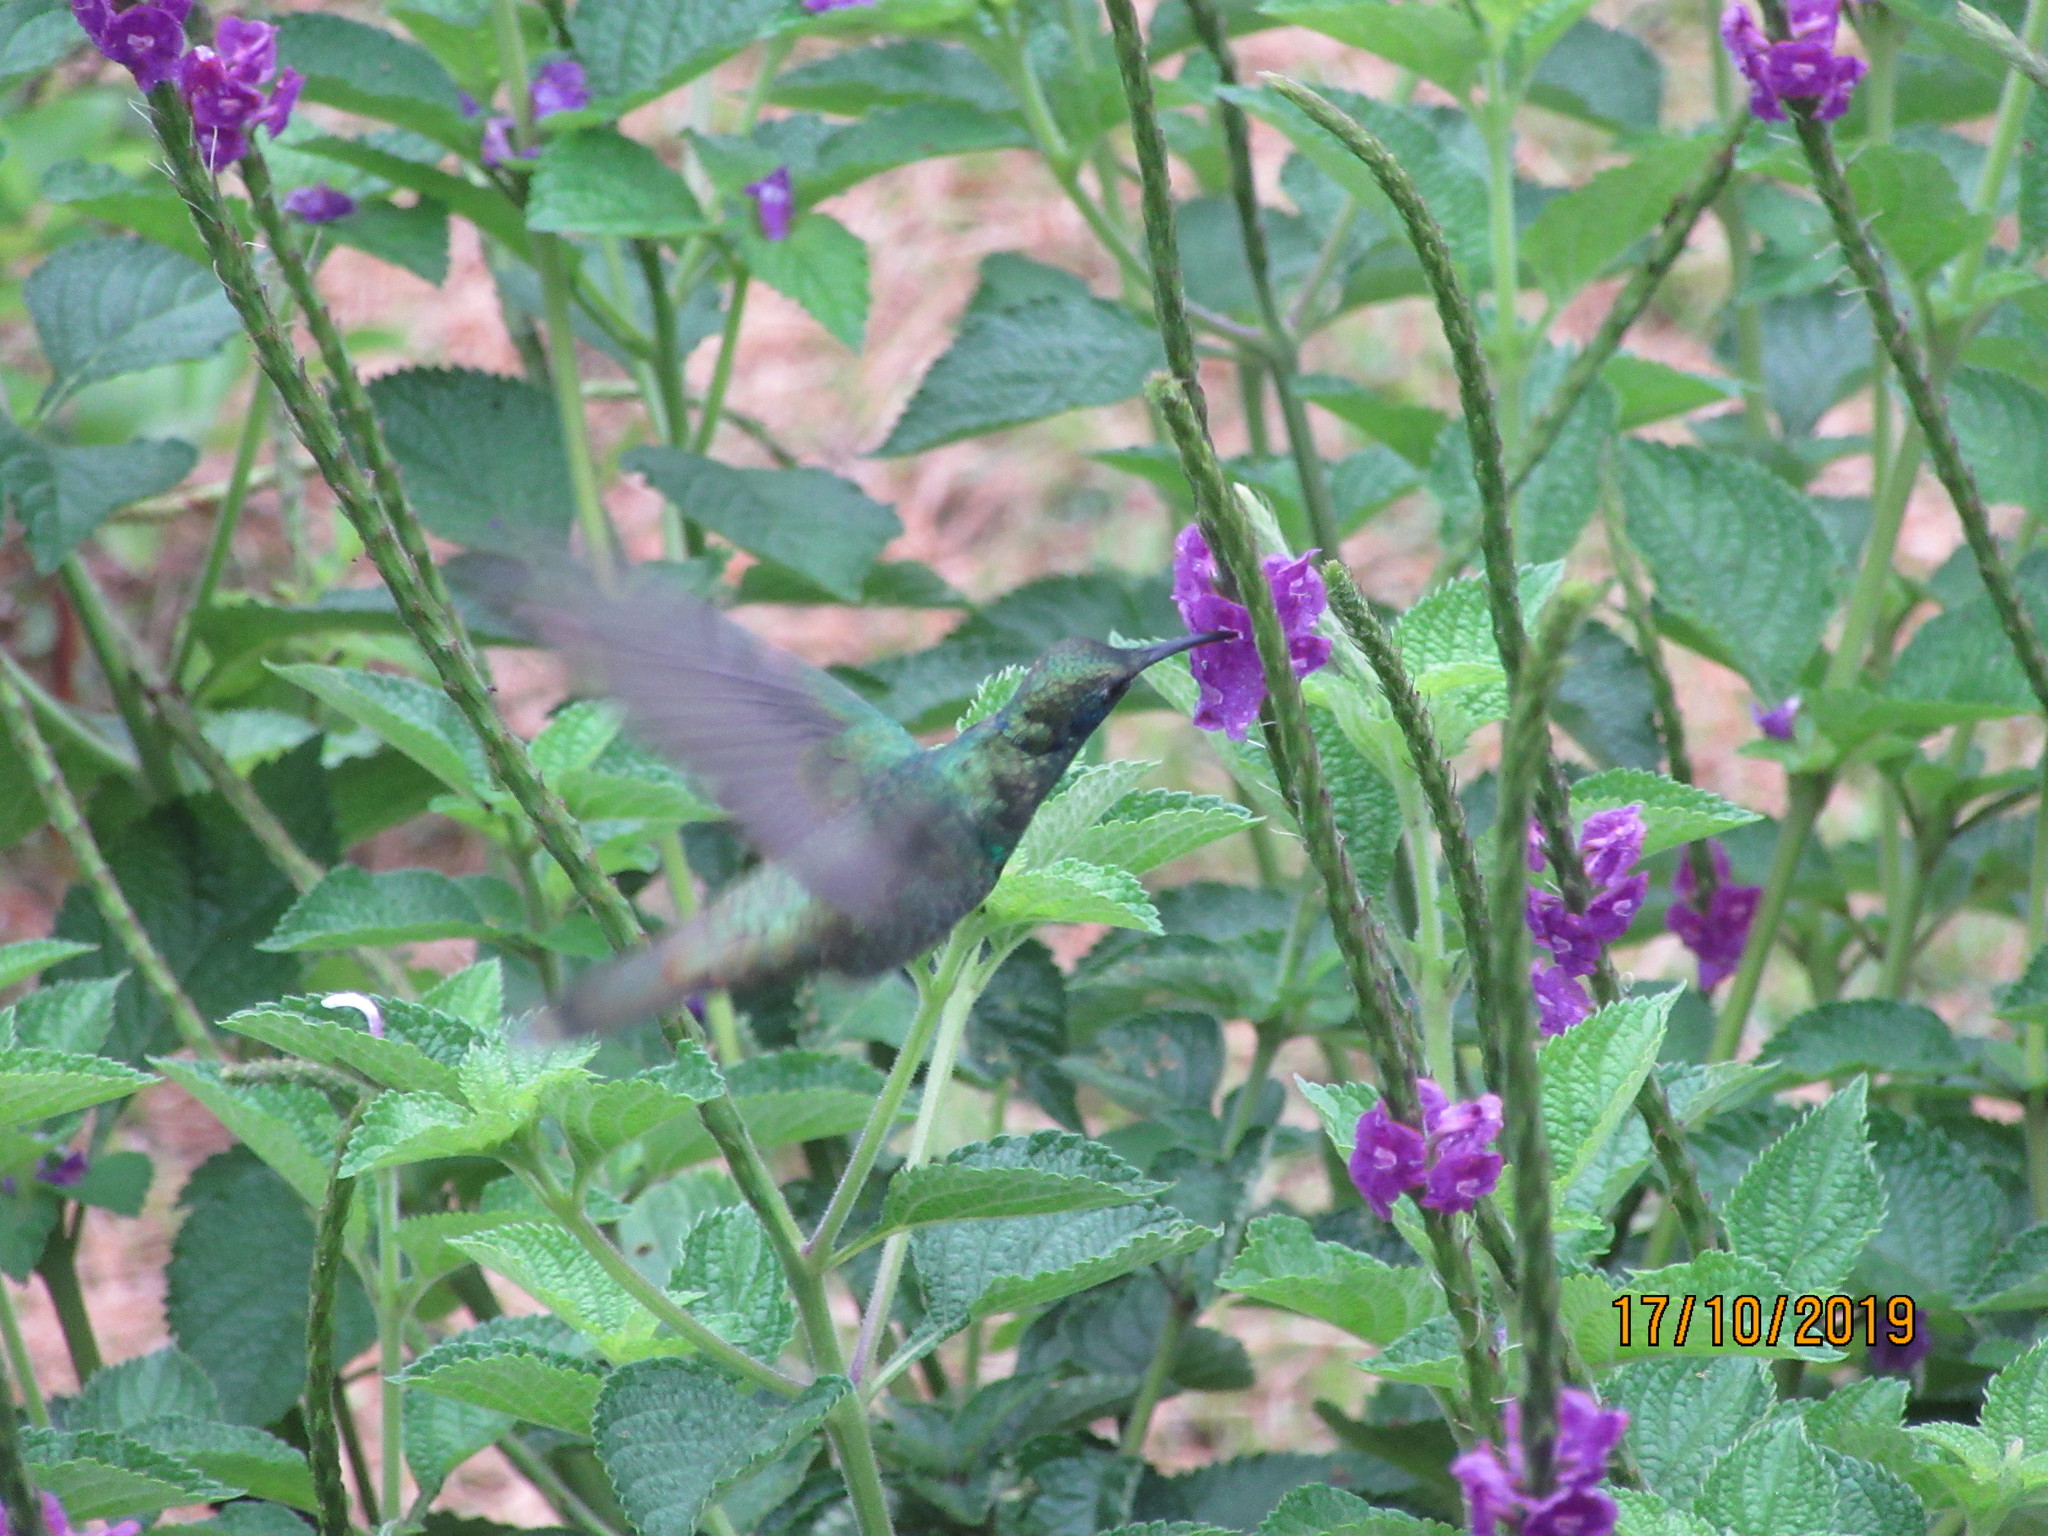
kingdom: Animalia
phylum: Chordata
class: Aves
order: Apodiformes
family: Trochilidae
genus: Colibri
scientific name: Colibri coruscans
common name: Sparkling violetear
